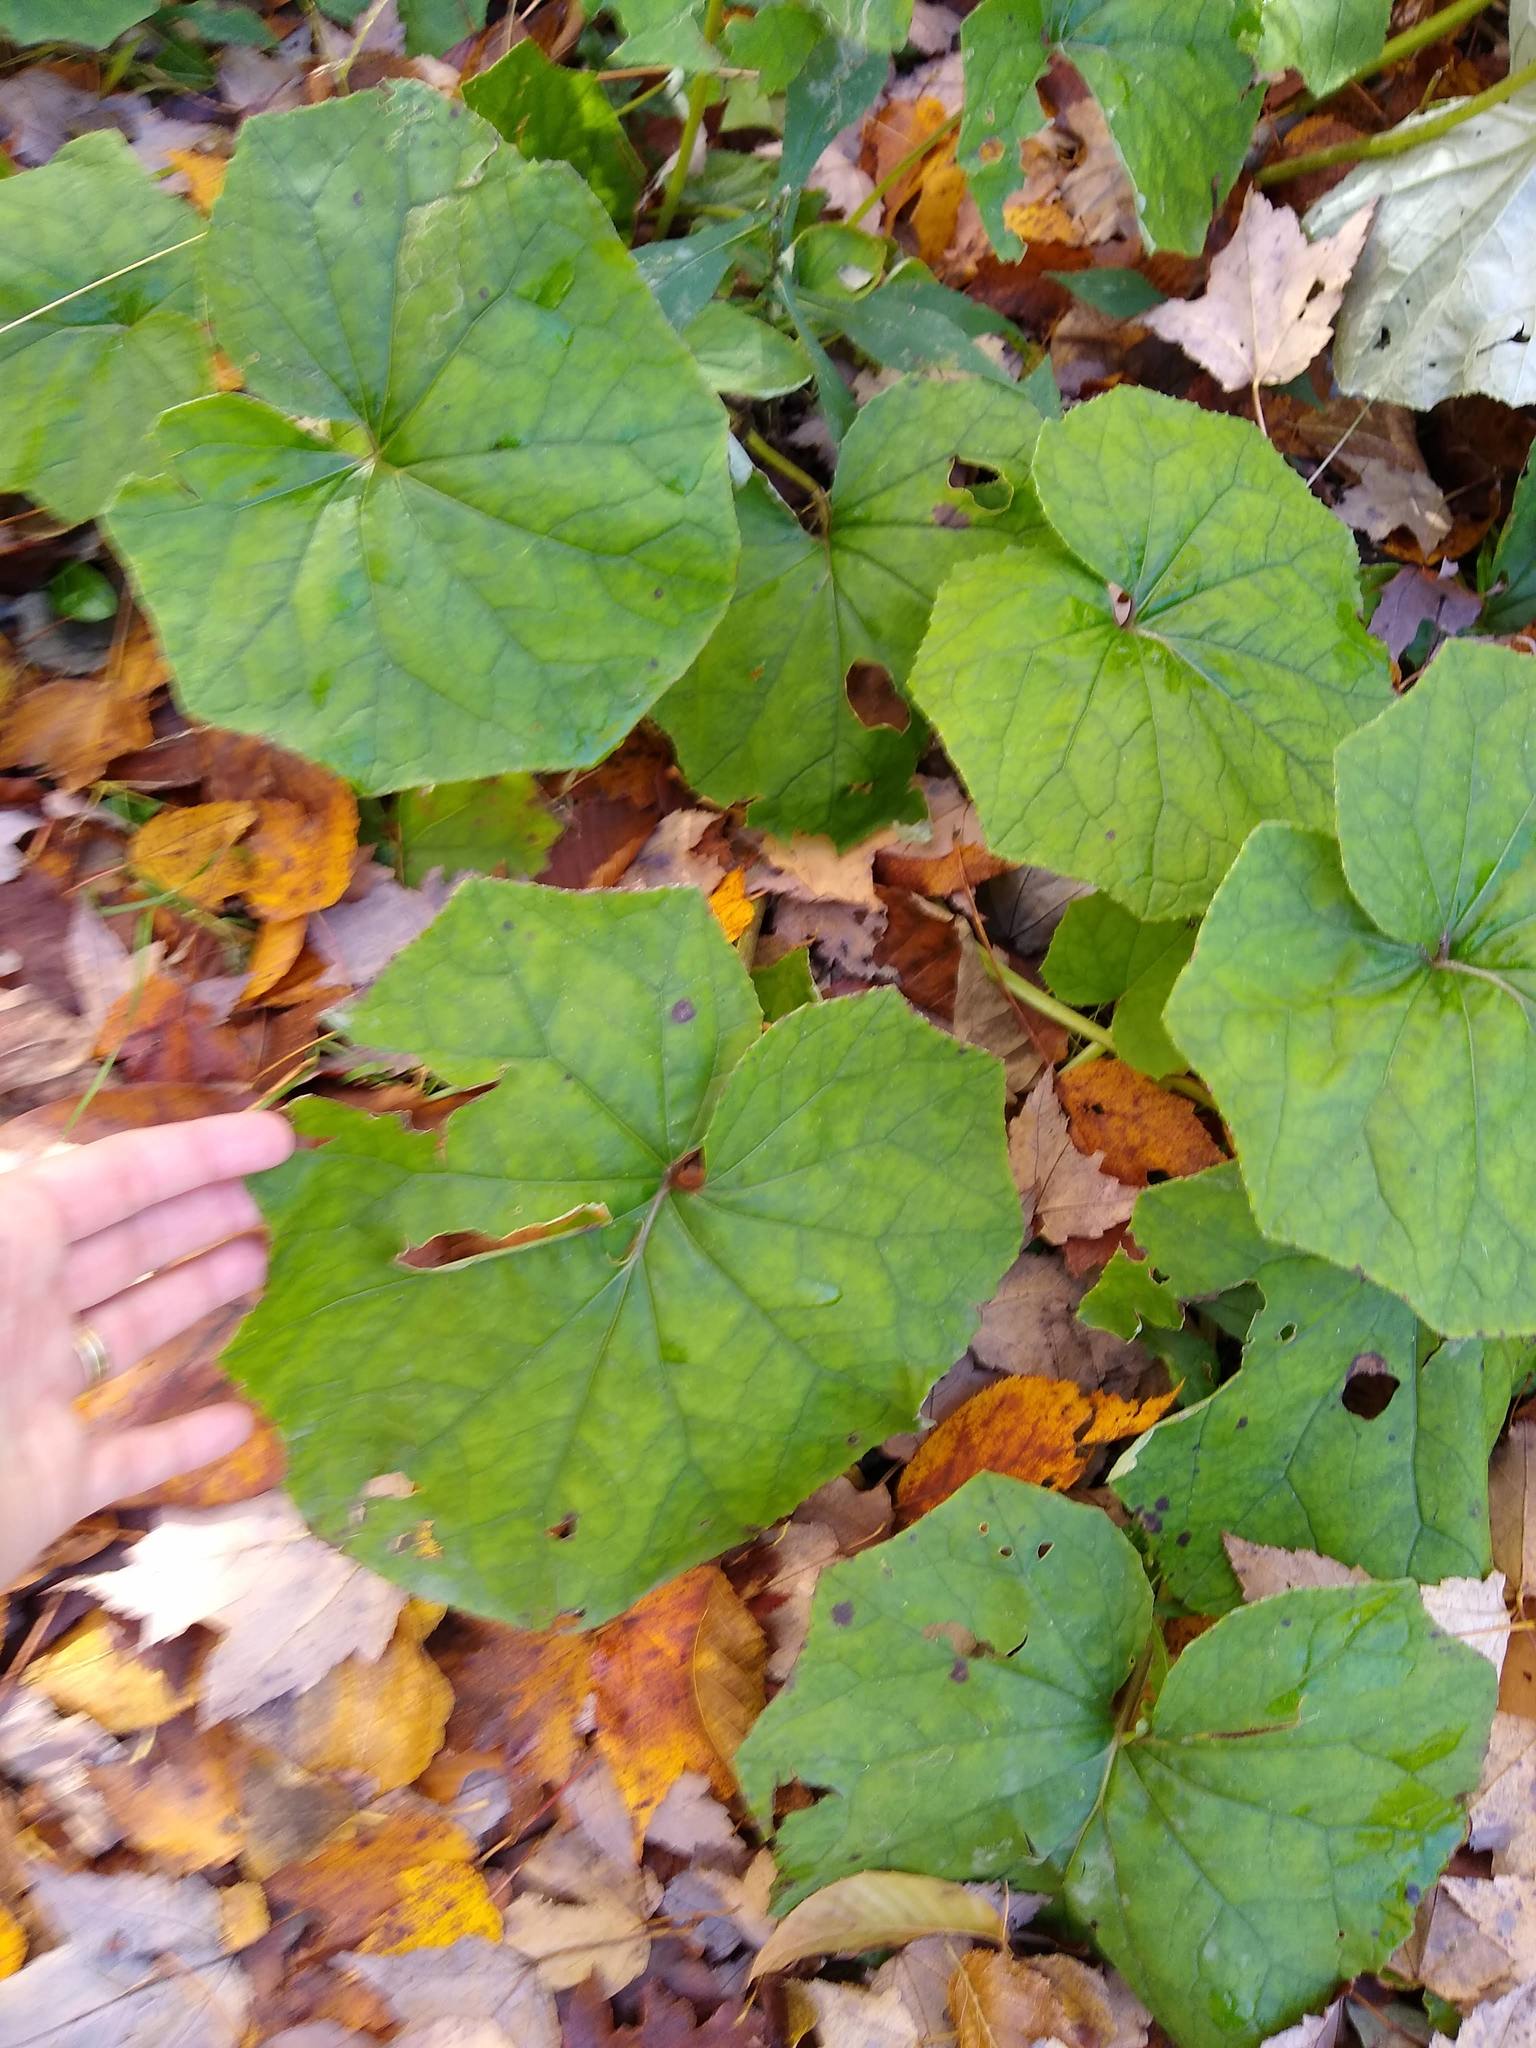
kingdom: Plantae
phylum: Tracheophyta
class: Magnoliopsida
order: Asterales
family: Asteraceae
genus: Tussilago
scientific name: Tussilago farfara
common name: Coltsfoot
